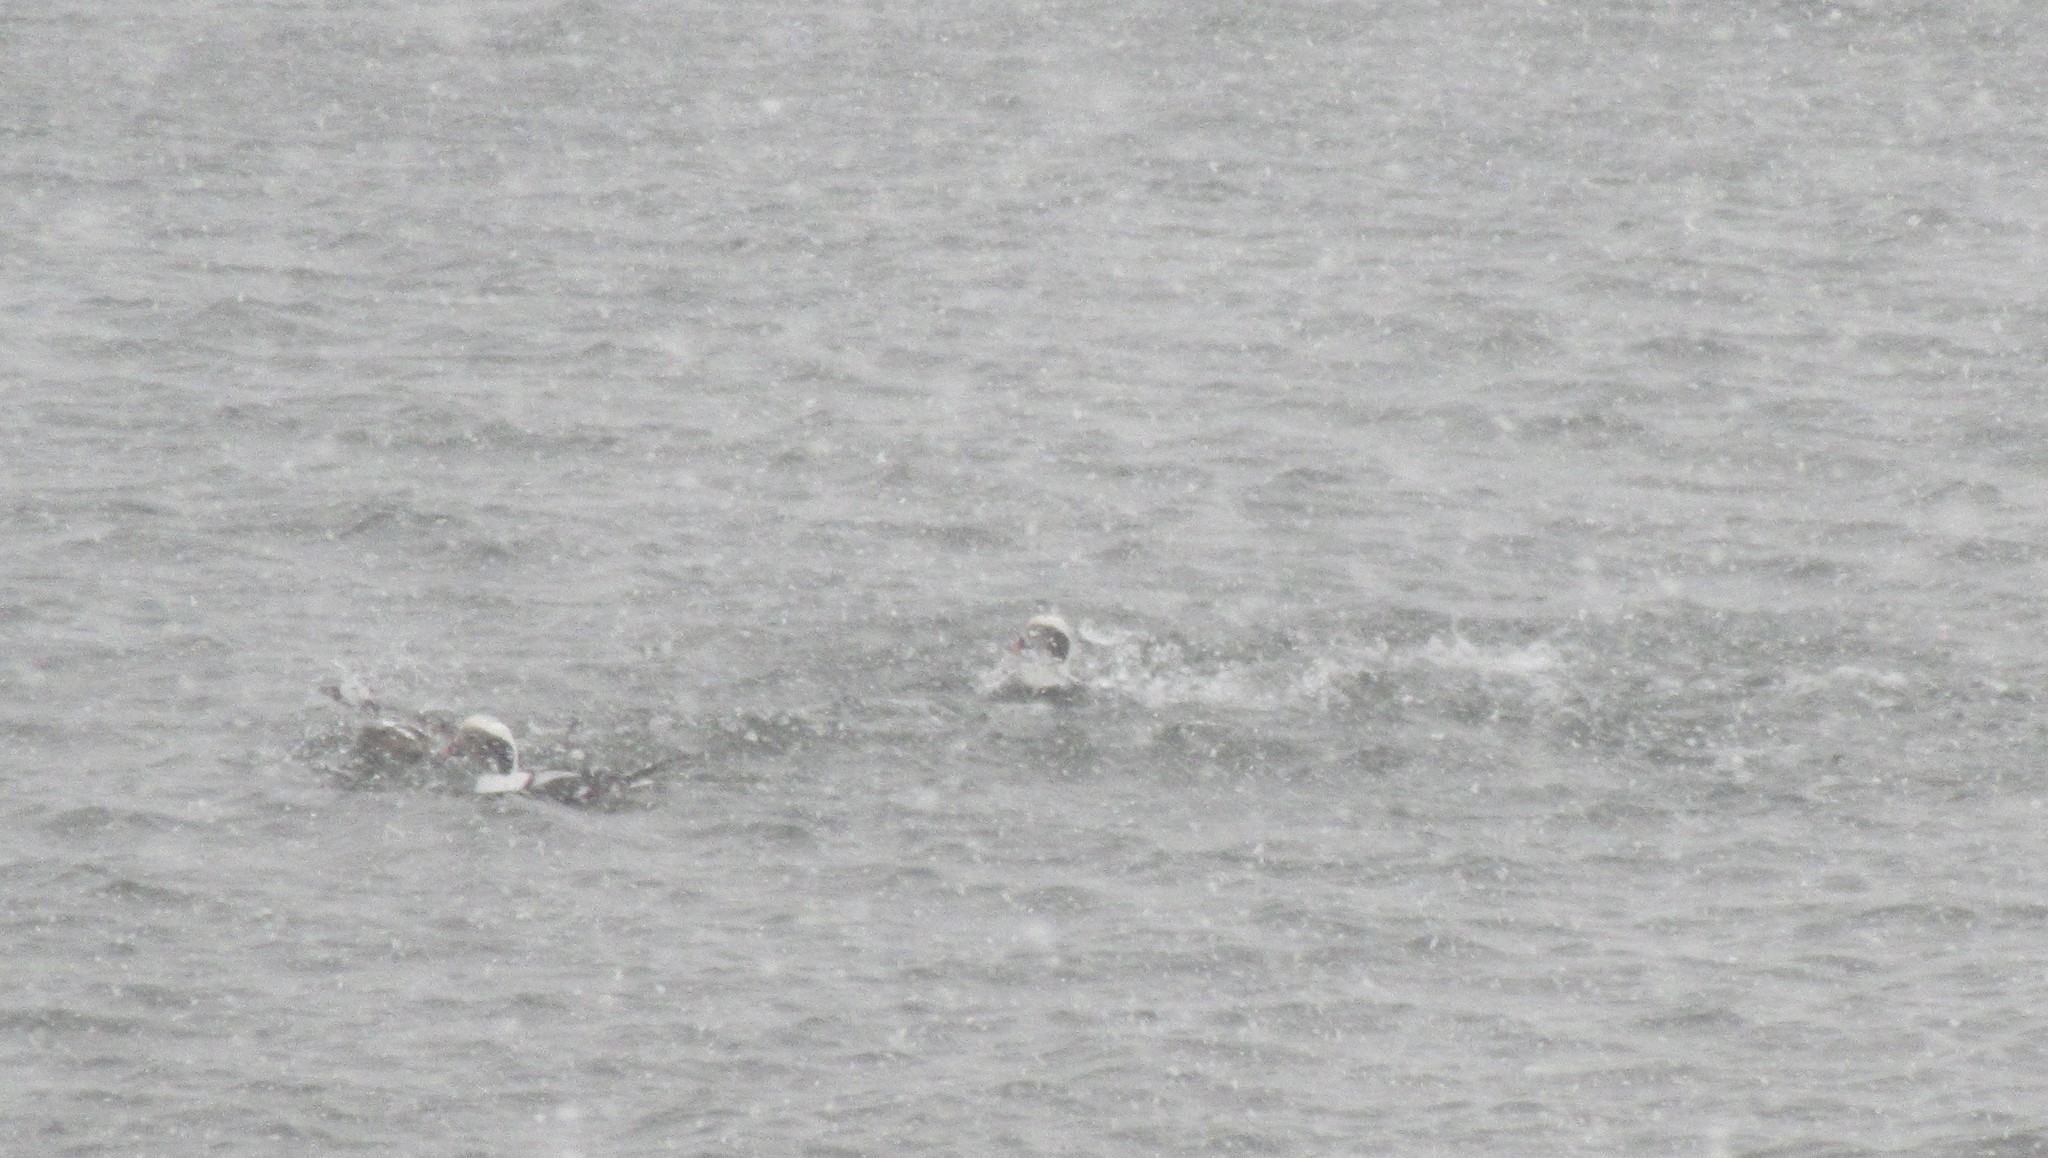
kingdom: Animalia
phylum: Chordata
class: Aves
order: Anseriformes
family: Anatidae
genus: Clangula
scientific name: Clangula hyemalis
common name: Long-tailed duck
